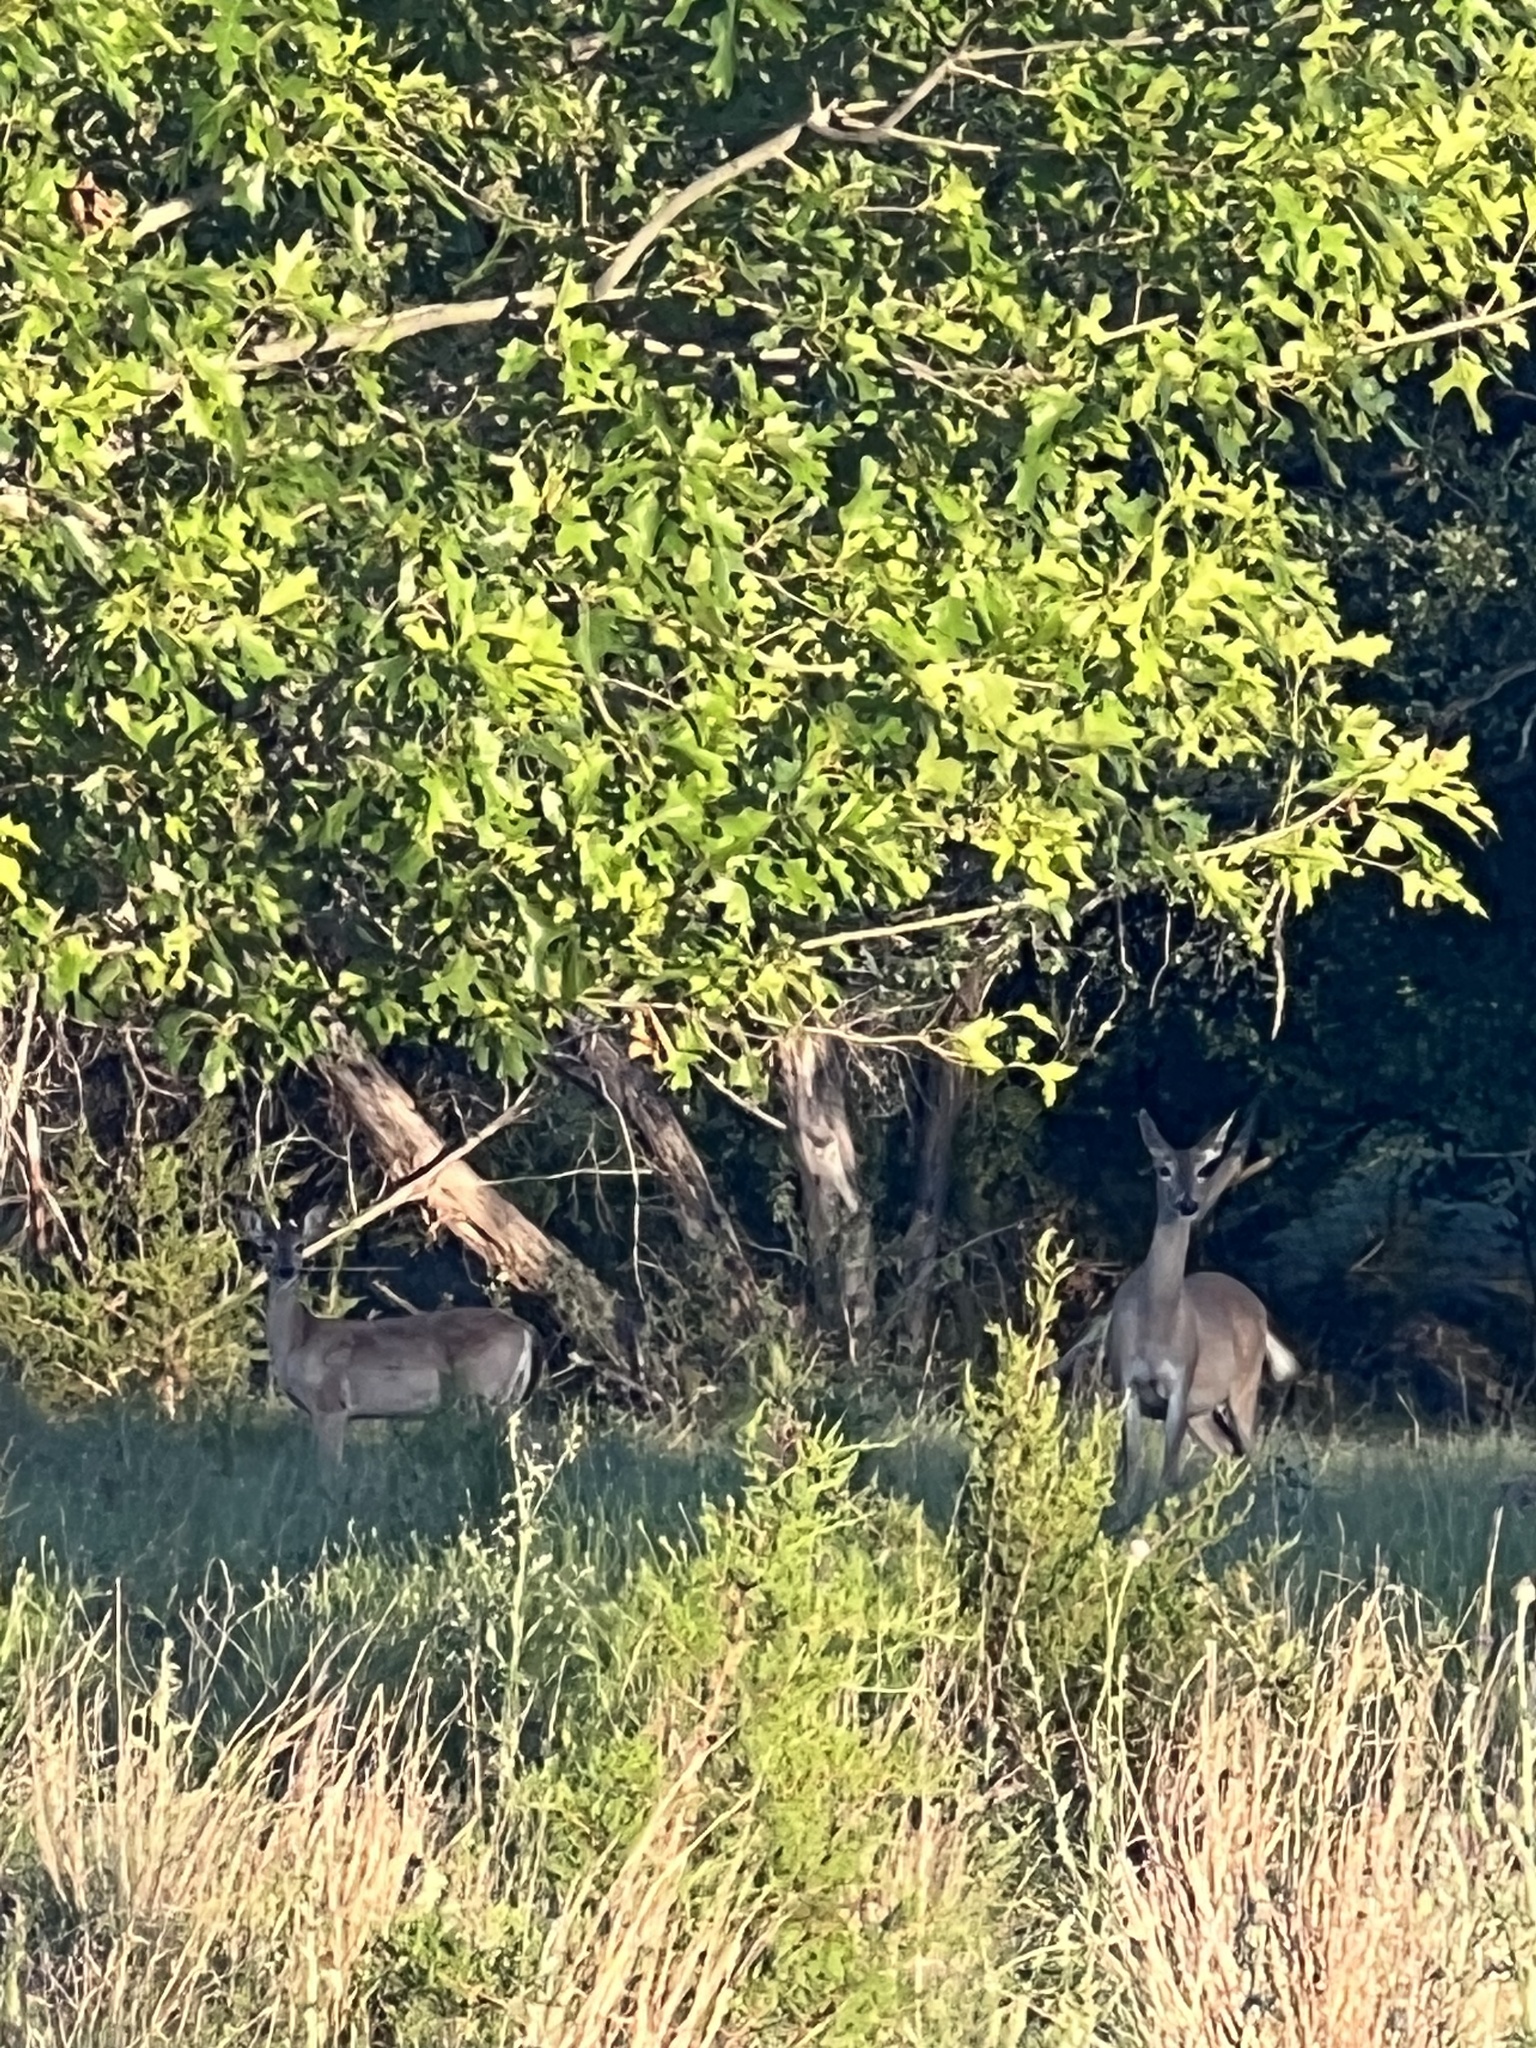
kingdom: Animalia
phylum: Chordata
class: Mammalia
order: Artiodactyla
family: Cervidae
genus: Odocoileus
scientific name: Odocoileus virginianus
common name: White-tailed deer
